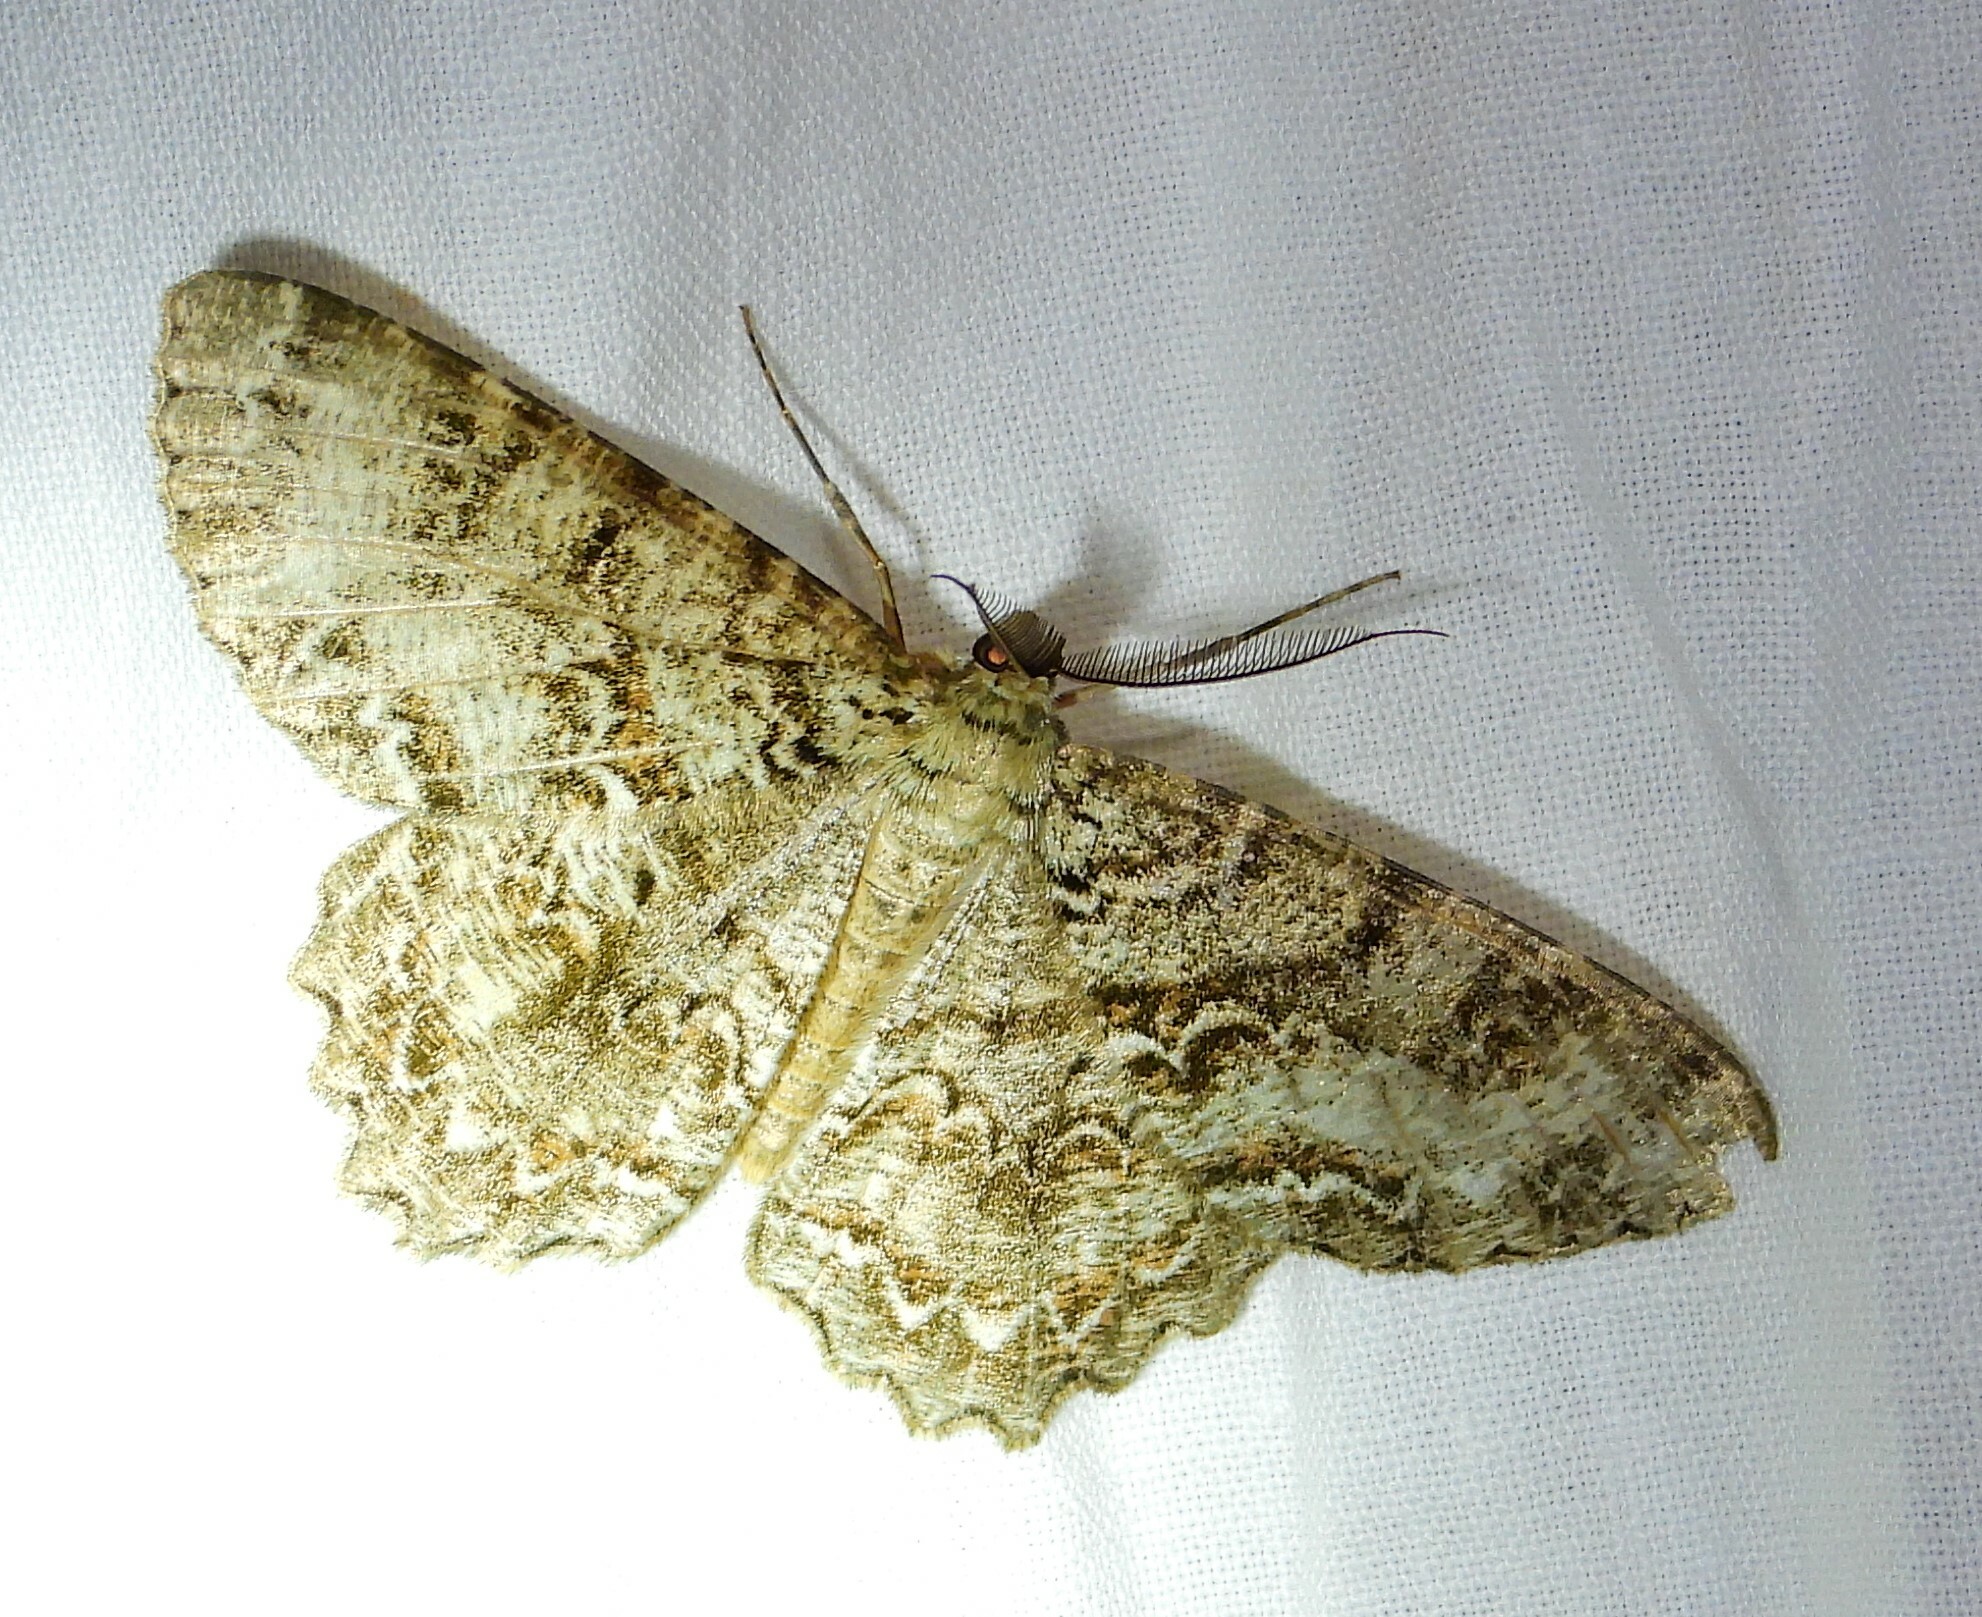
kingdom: Animalia
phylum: Arthropoda
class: Insecta
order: Lepidoptera
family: Geometridae
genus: Epimecis
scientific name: Epimecis hortaria
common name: Tulip-tree beauty
